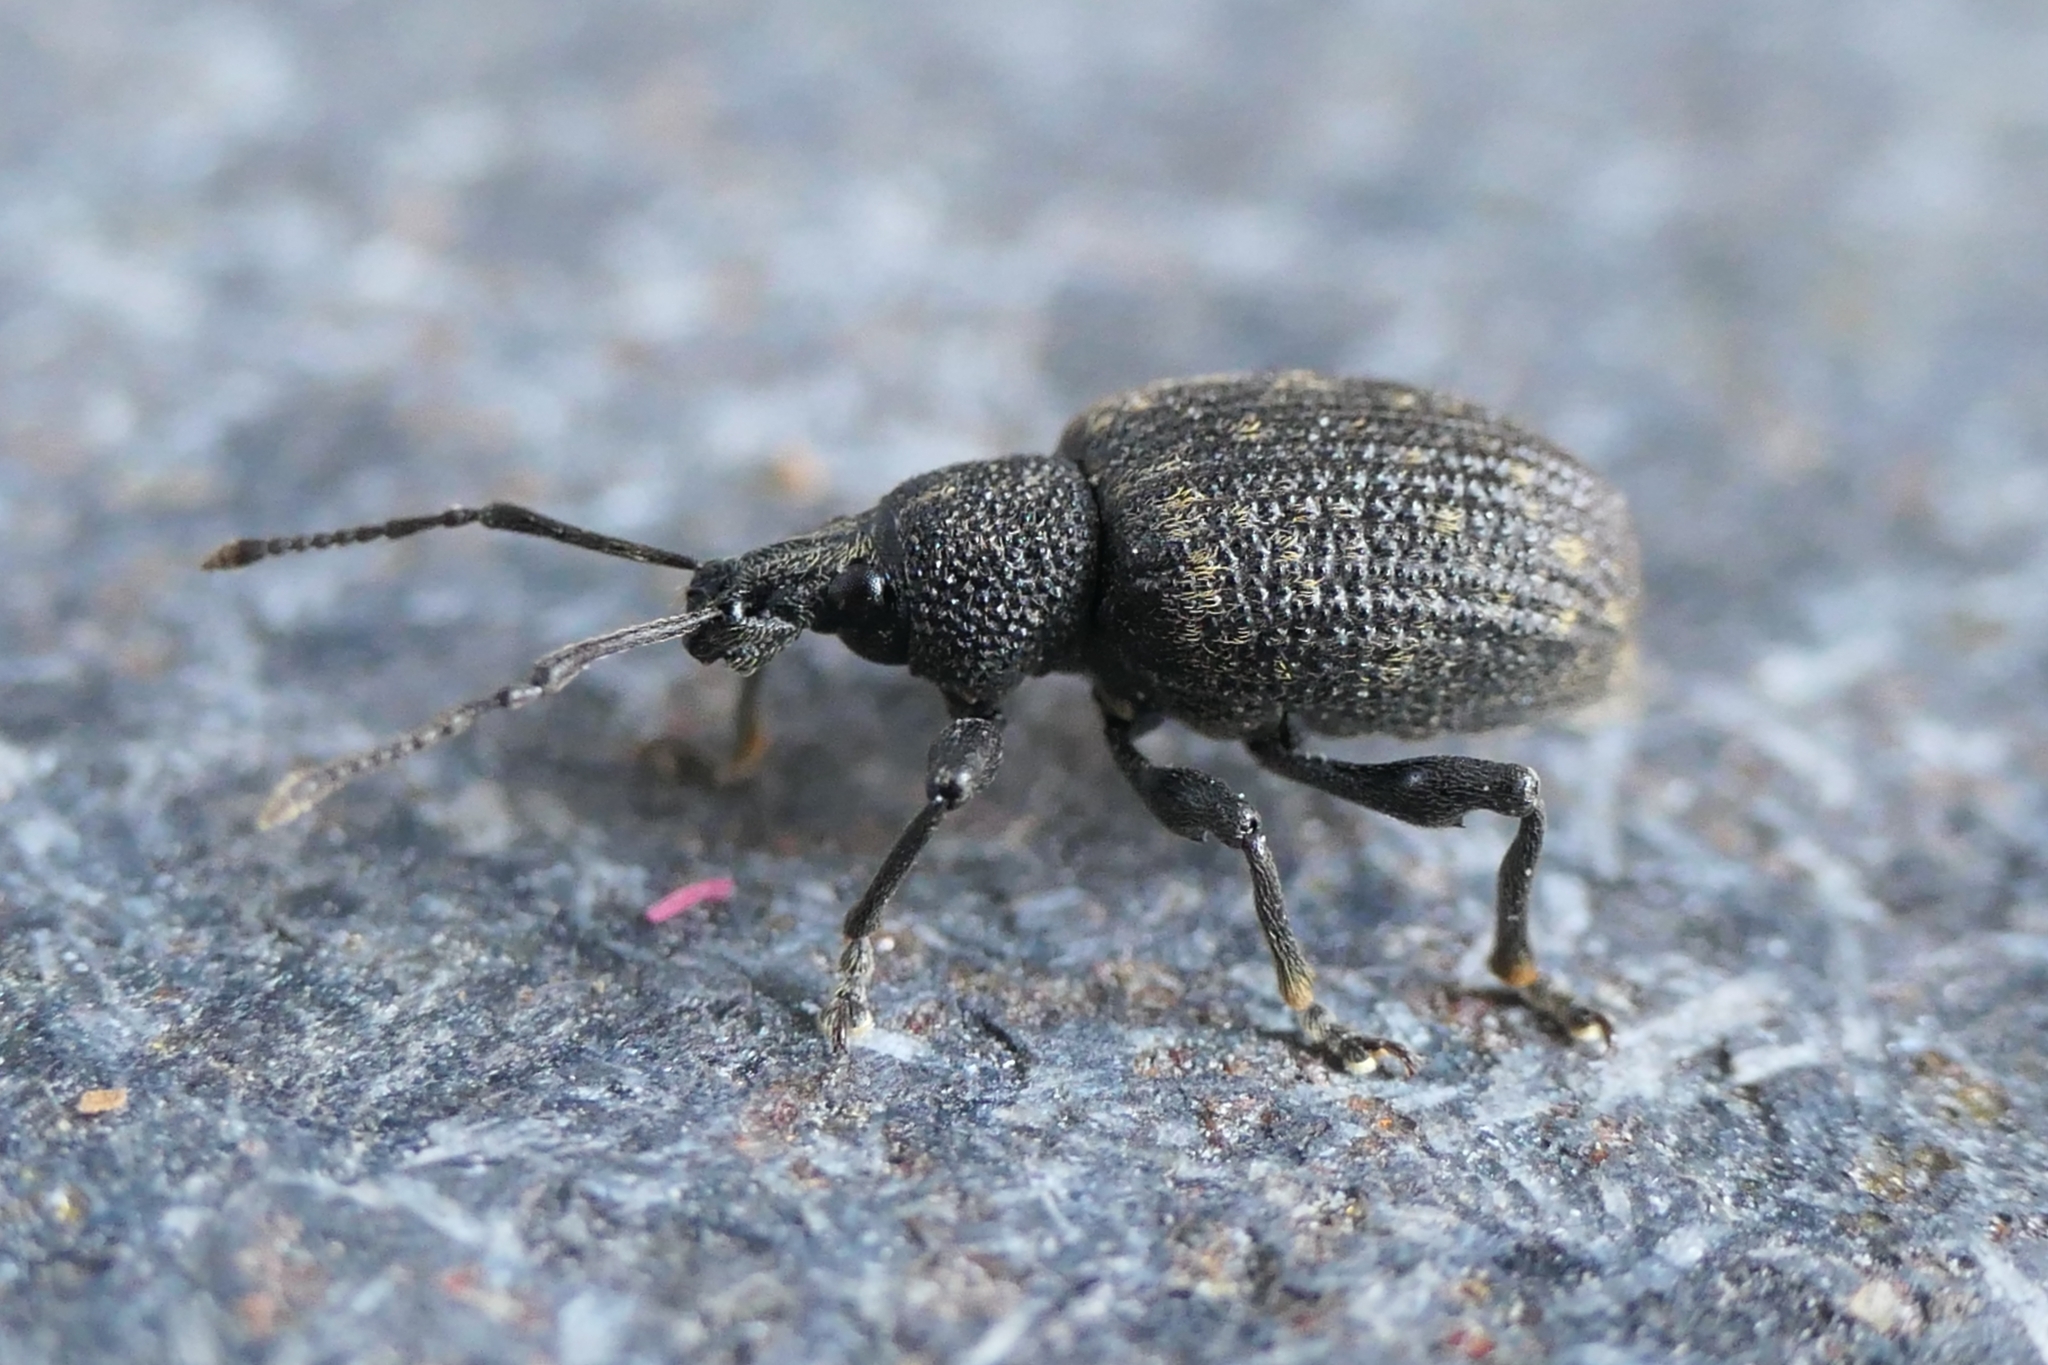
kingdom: Animalia
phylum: Arthropoda
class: Insecta
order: Coleoptera
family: Curculionidae
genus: Otiorhynchus
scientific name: Otiorhynchus sulcatus
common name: Black vine weevil
